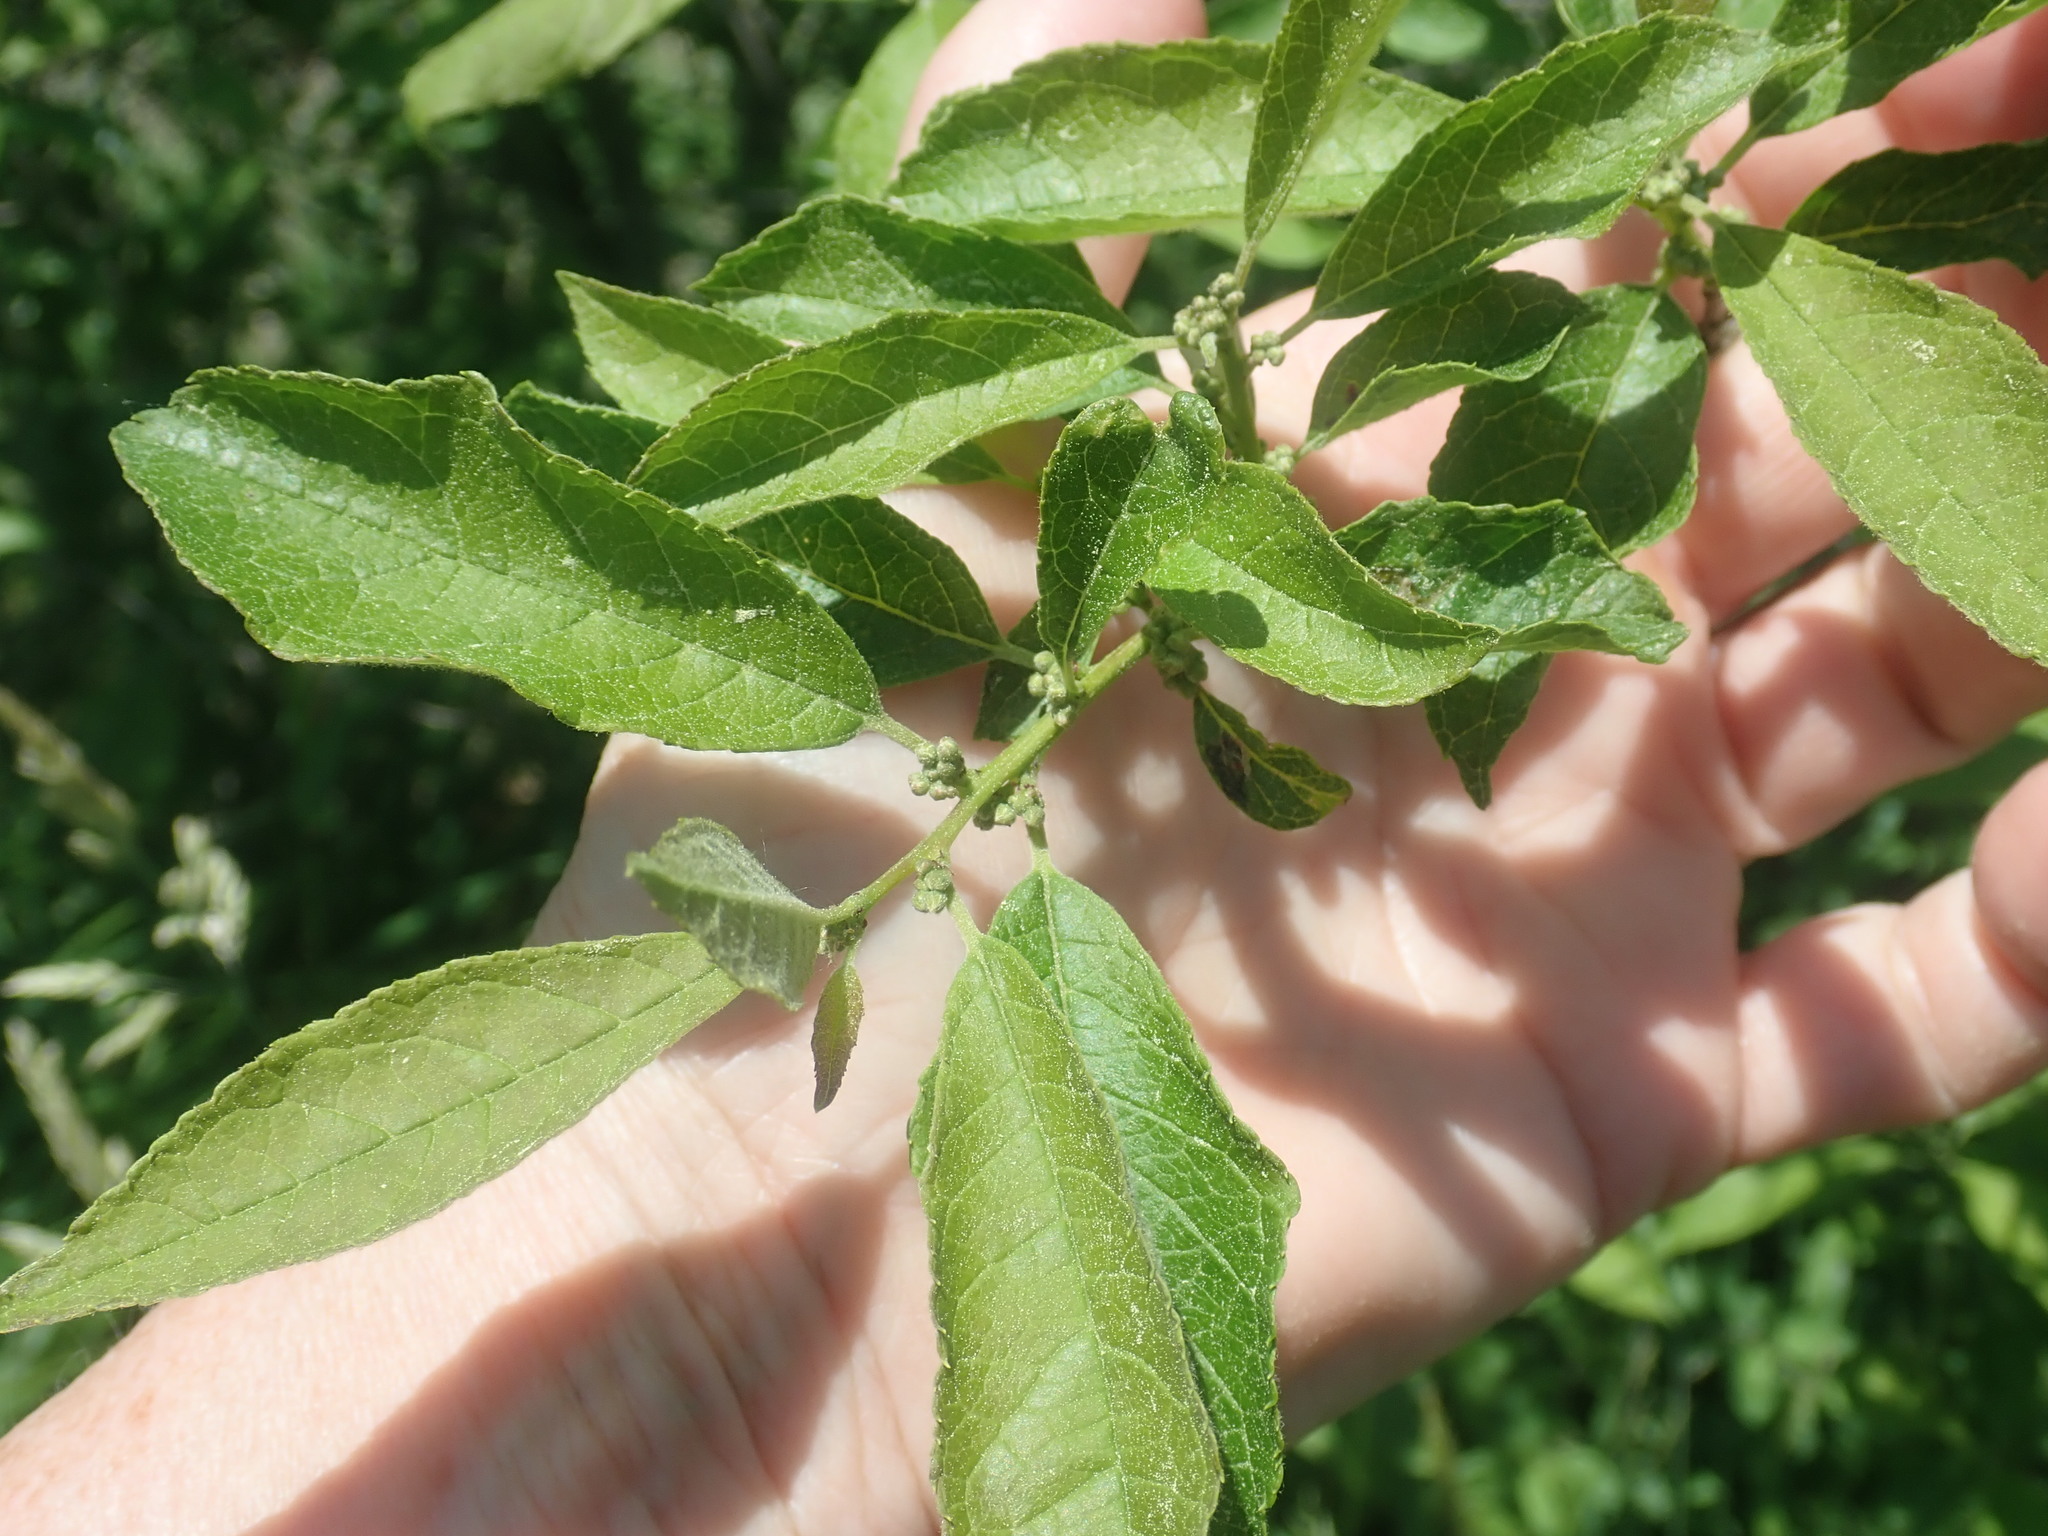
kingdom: Plantae
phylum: Tracheophyta
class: Magnoliopsida
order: Aquifoliales
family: Aquifoliaceae
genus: Ilex
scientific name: Ilex verticillata
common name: Virginia winterberry
